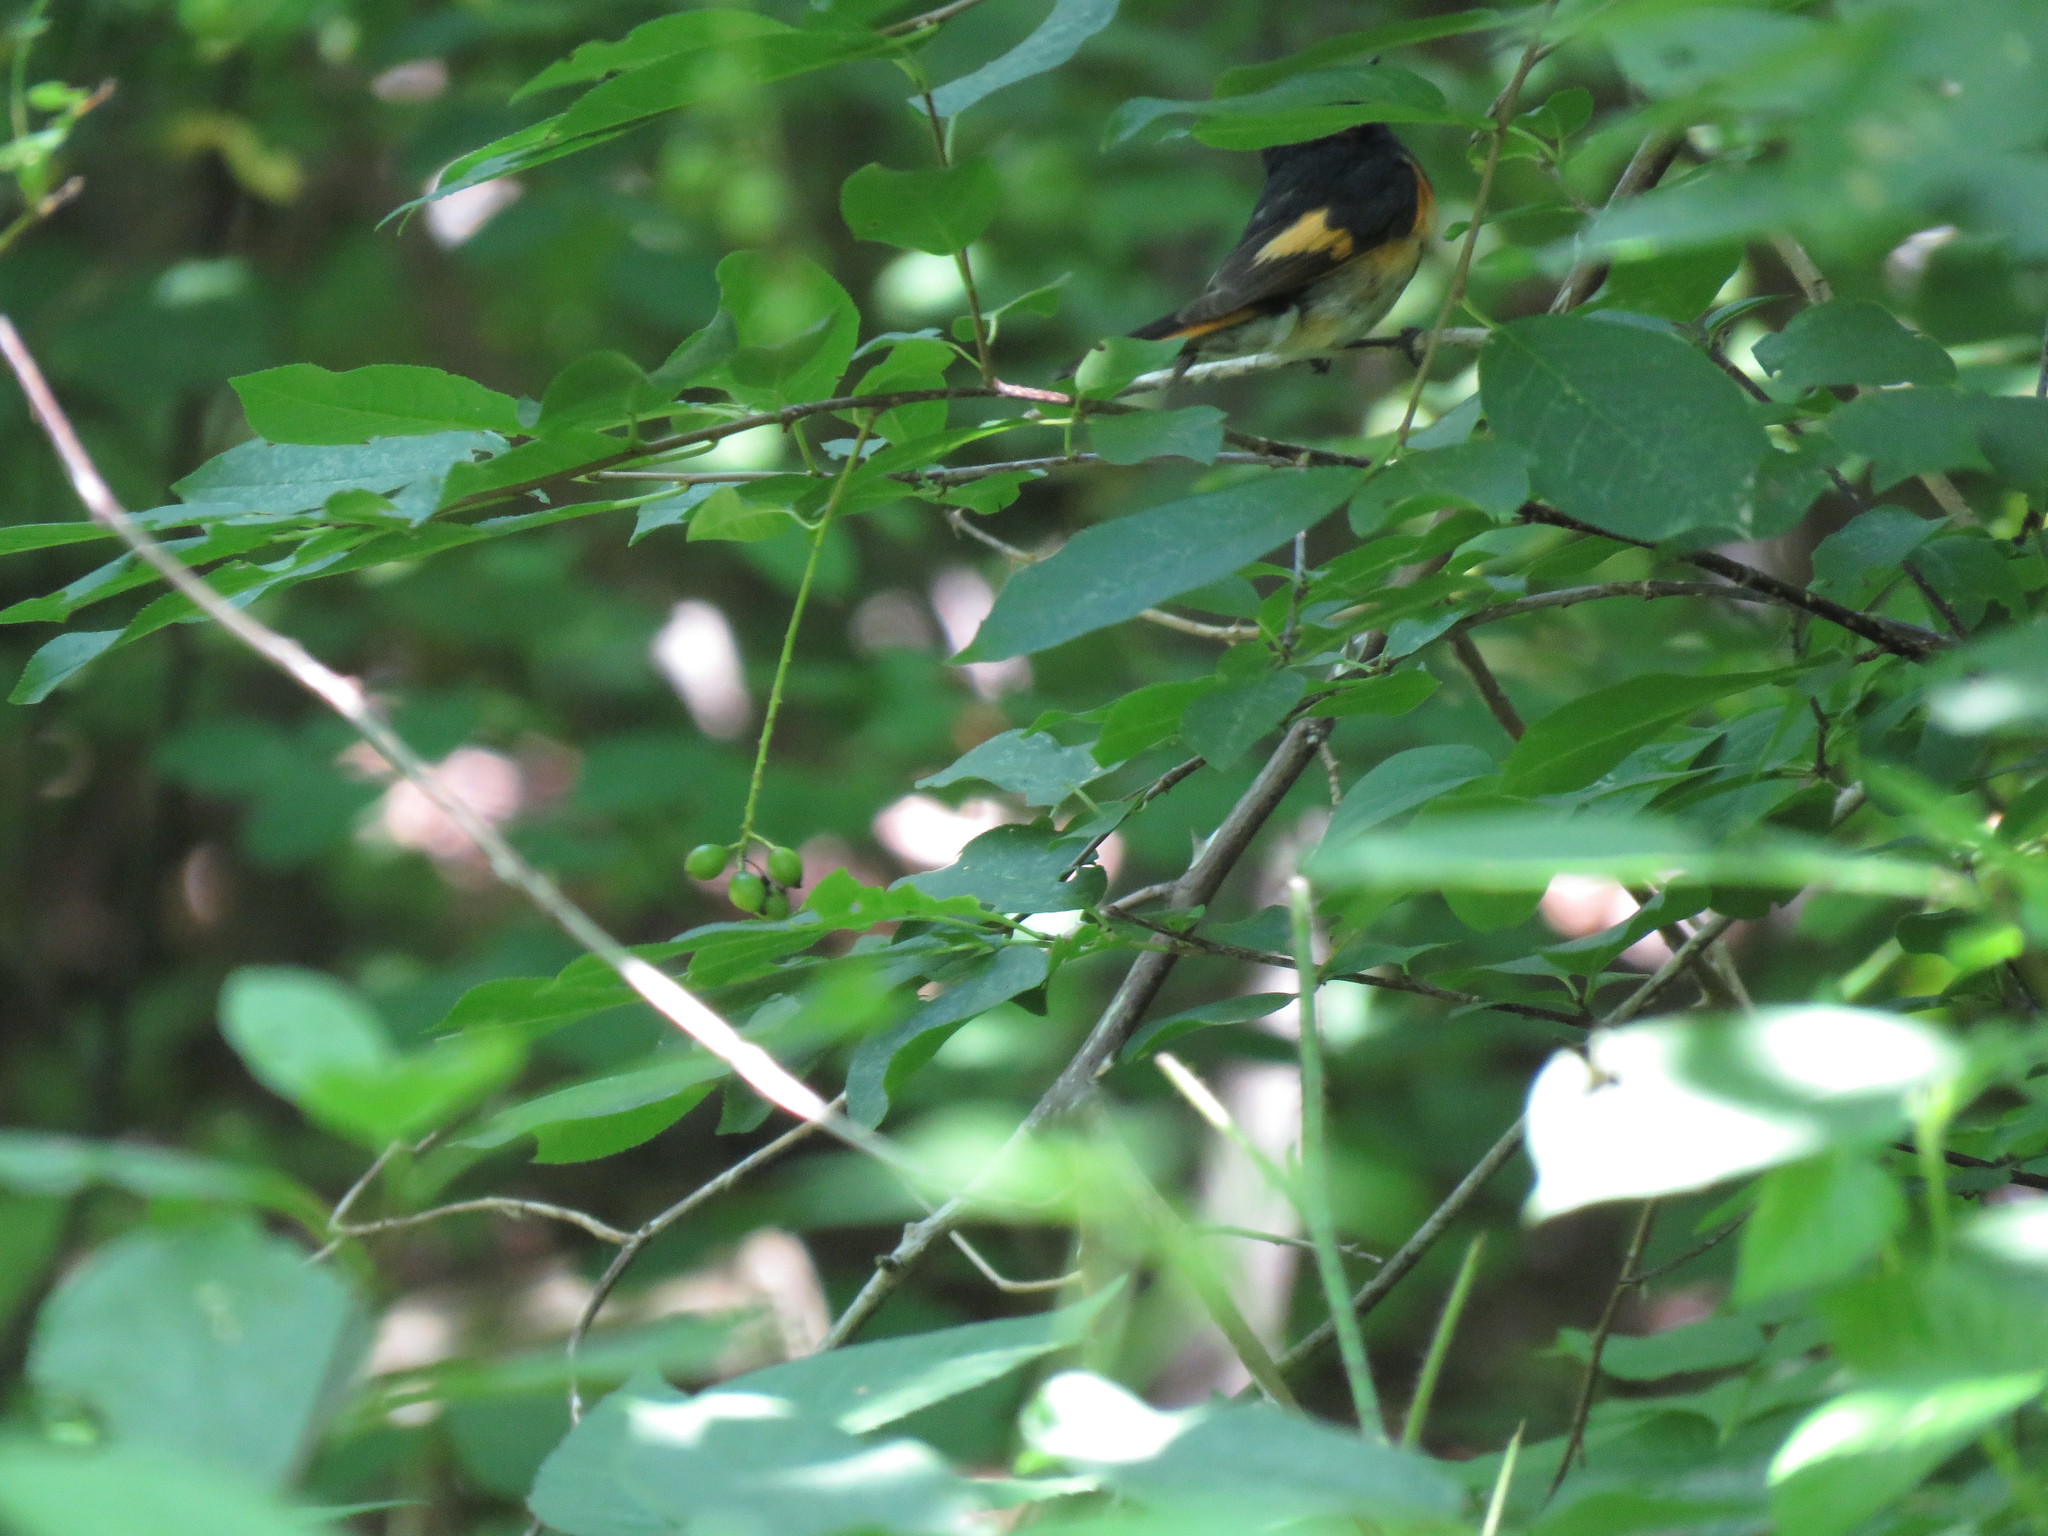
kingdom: Animalia
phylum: Chordata
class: Aves
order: Passeriformes
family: Parulidae
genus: Setophaga
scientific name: Setophaga ruticilla
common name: American redstart
